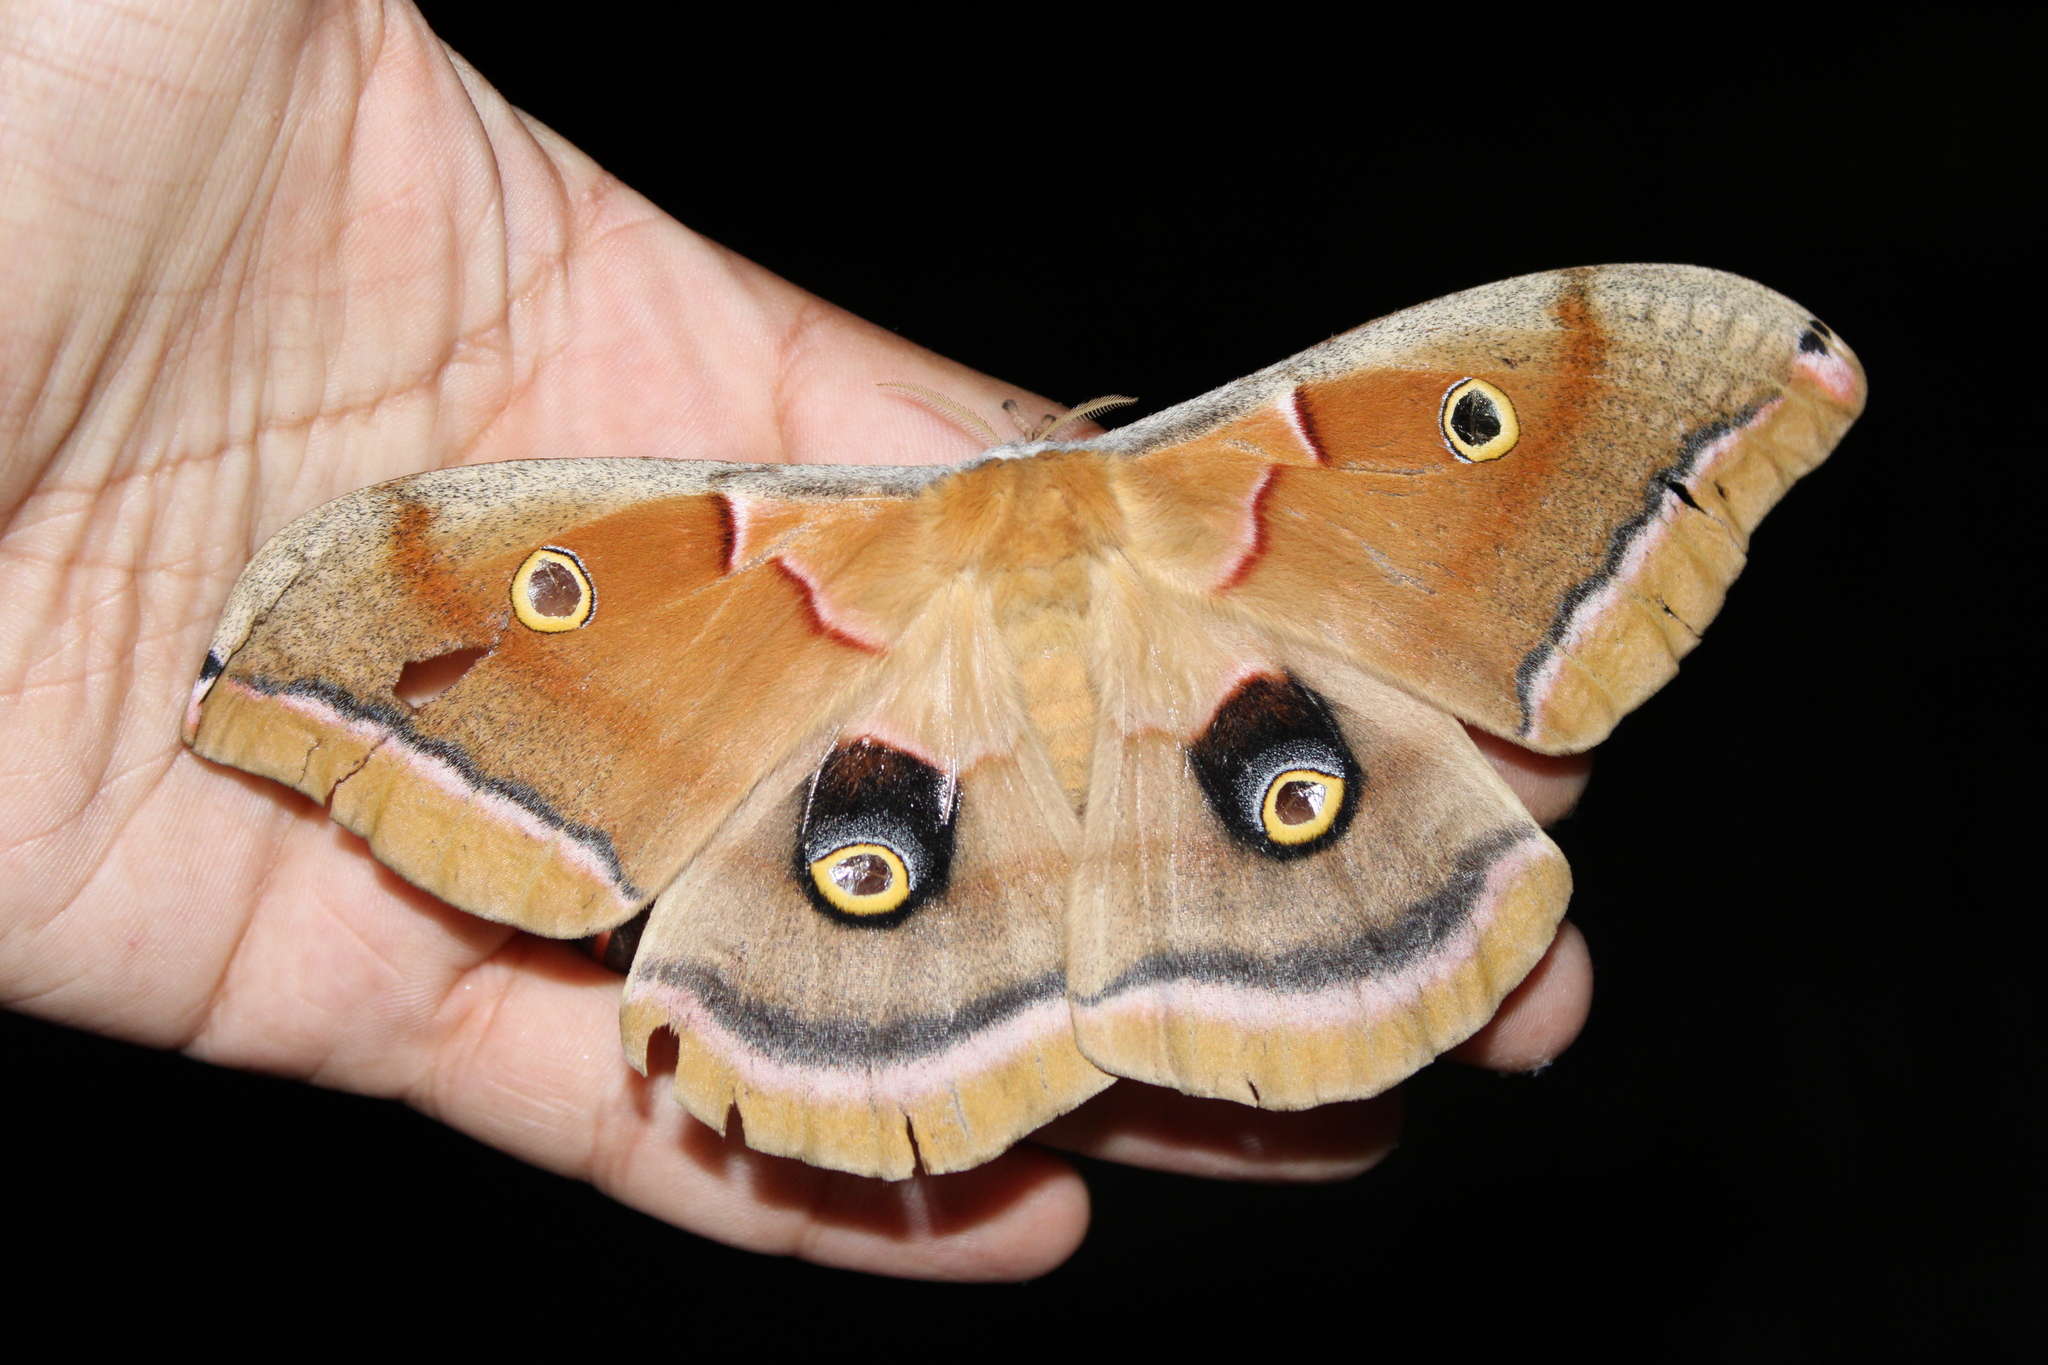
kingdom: Animalia
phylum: Arthropoda
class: Insecta
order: Lepidoptera
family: Saturniidae
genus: Antheraea
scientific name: Antheraea polyphemus
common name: Polyphemus moth
